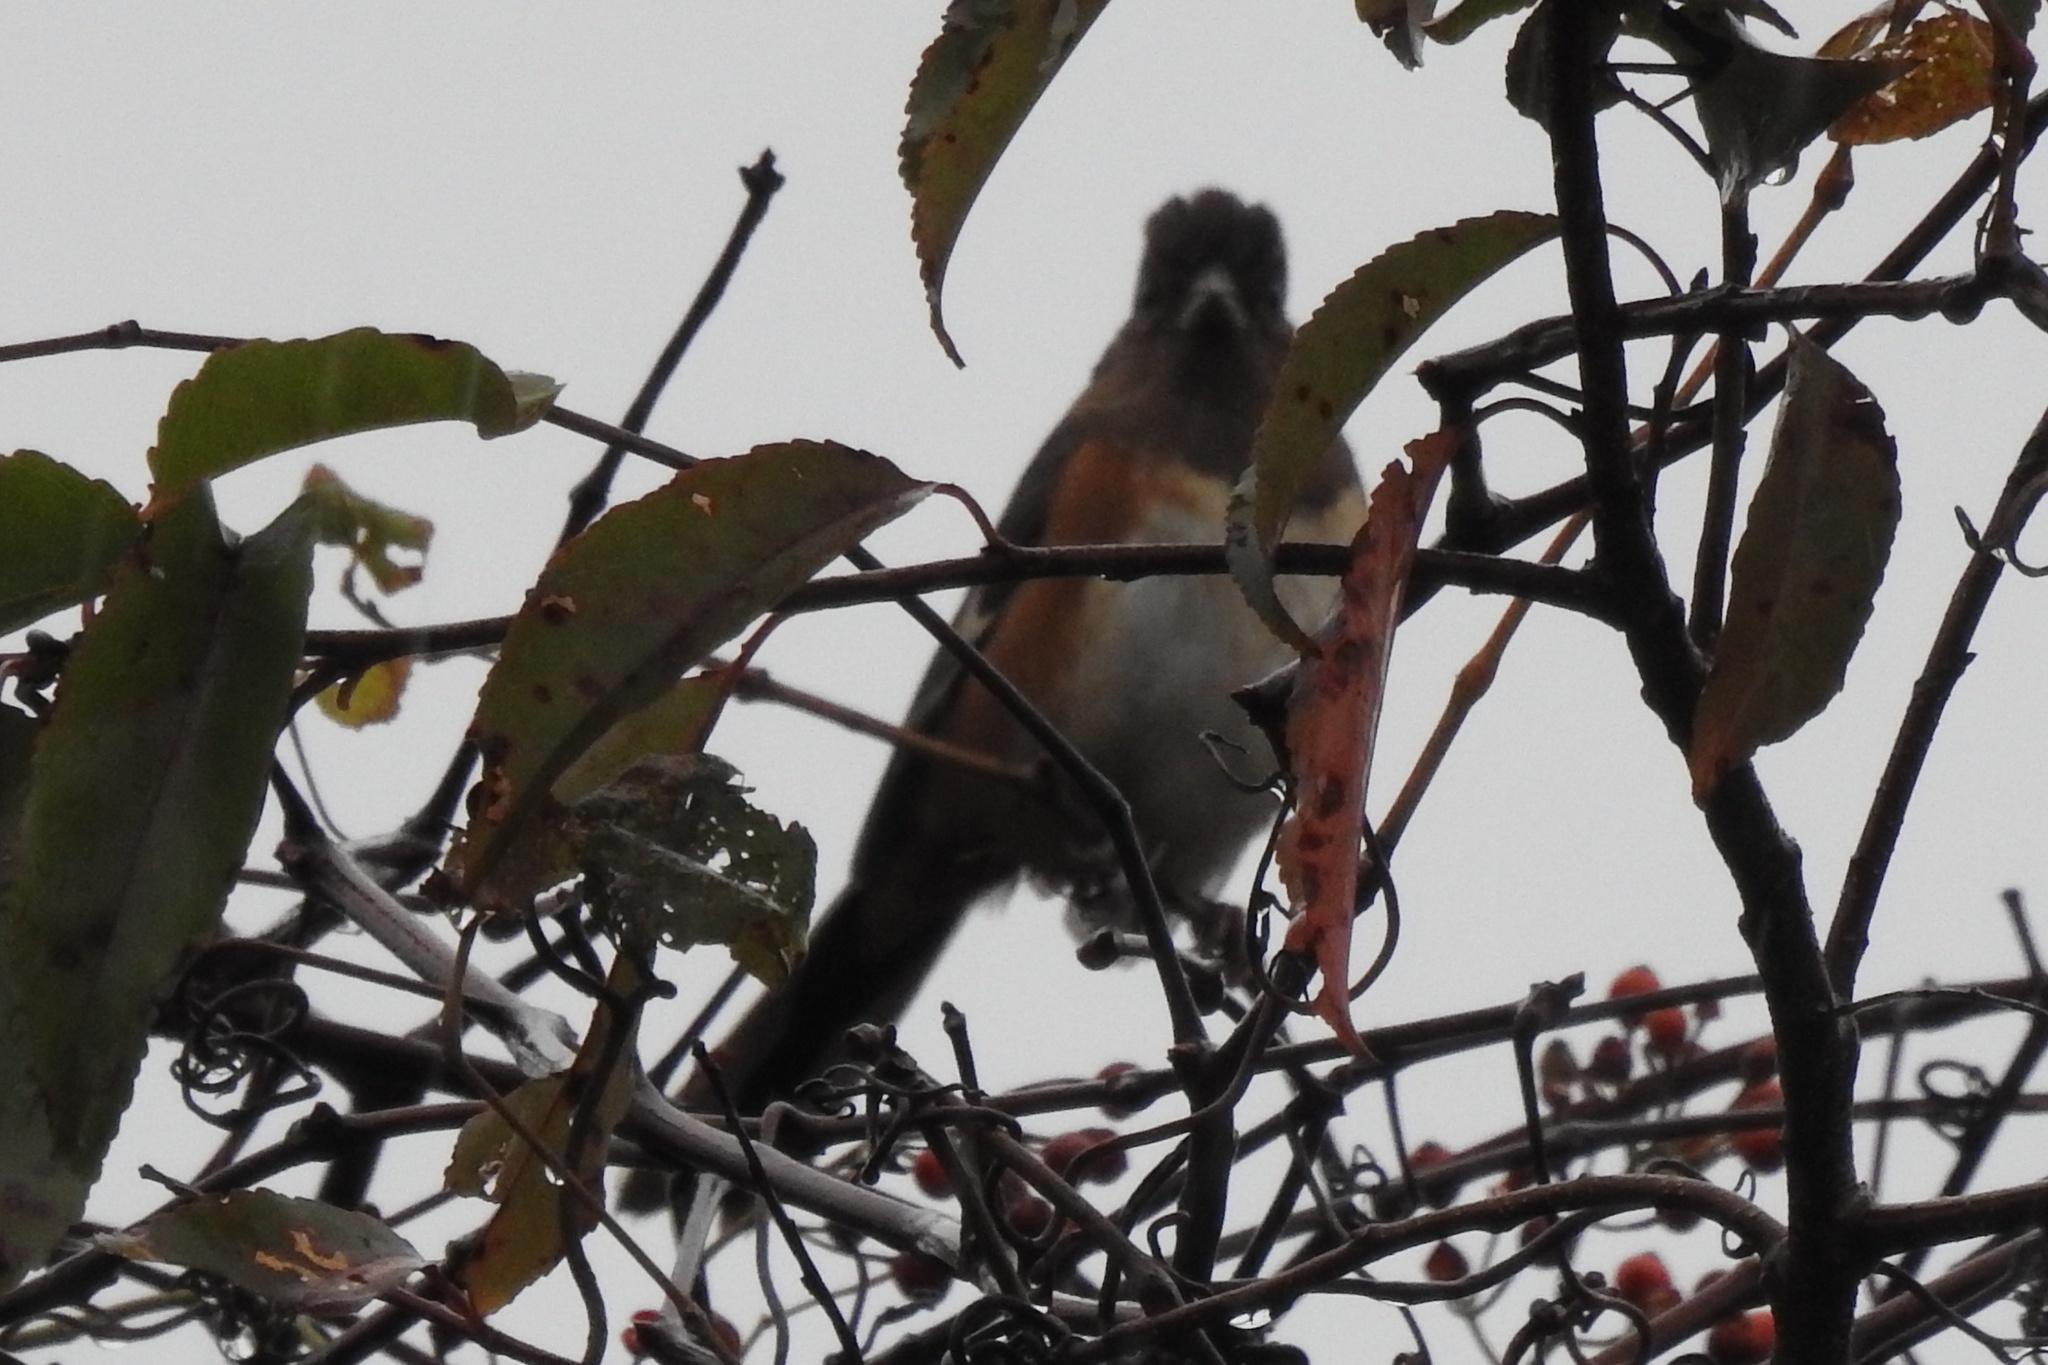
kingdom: Animalia
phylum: Chordata
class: Aves
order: Passeriformes
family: Passerellidae
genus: Pipilo
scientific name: Pipilo erythrophthalmus
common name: Eastern towhee
